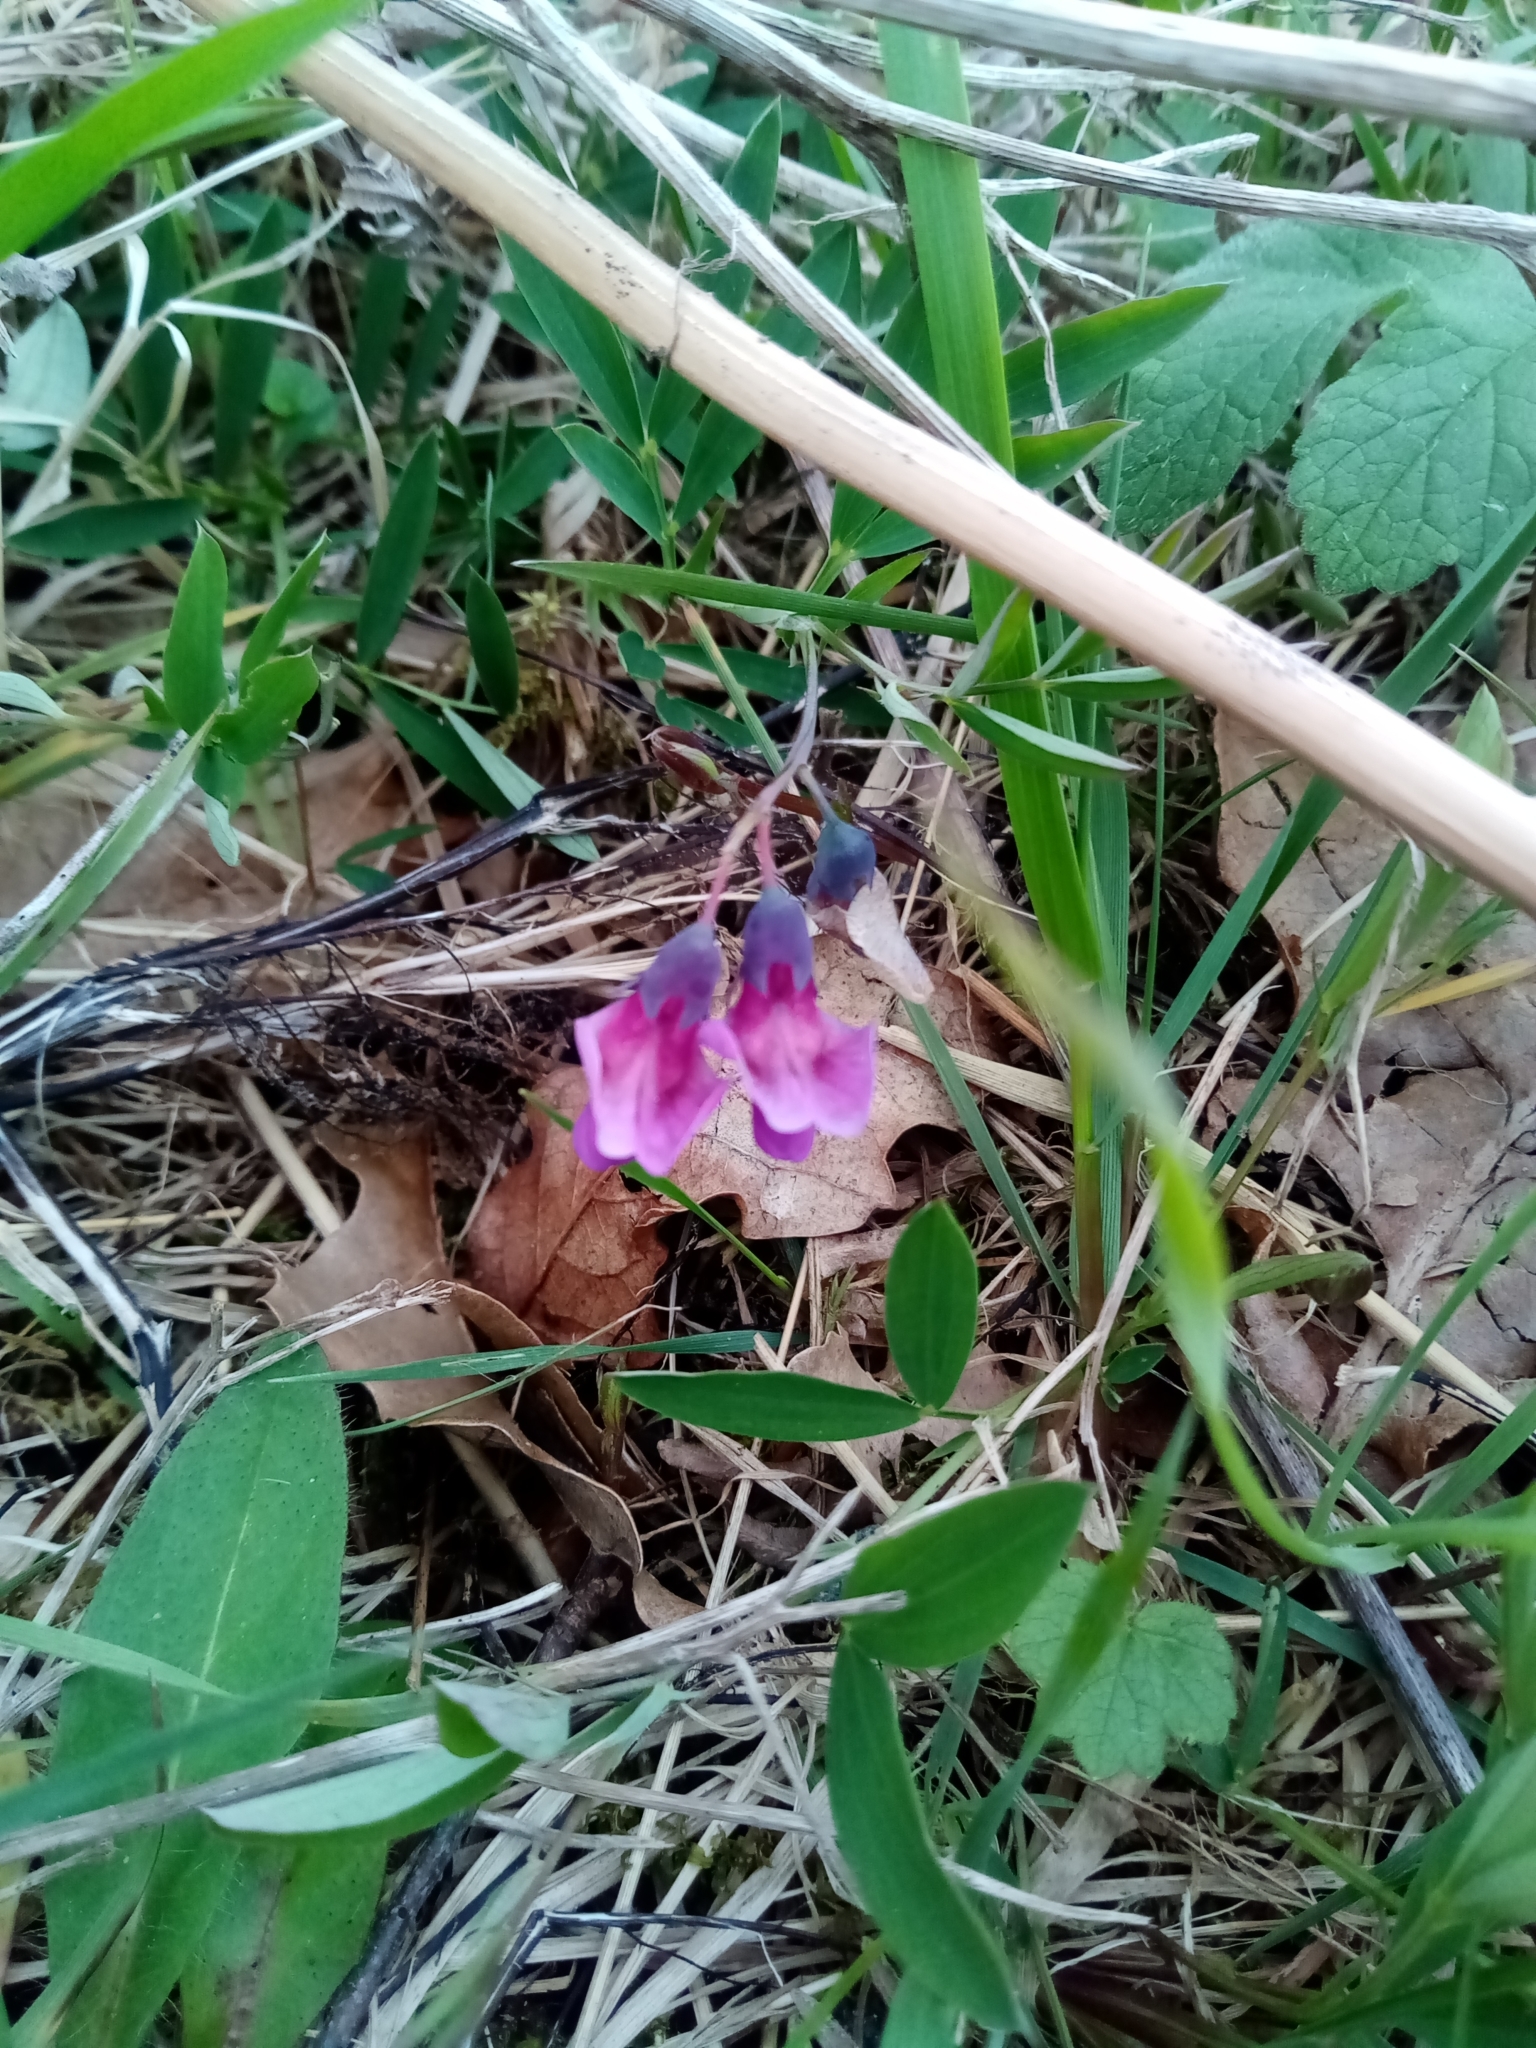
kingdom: Plantae
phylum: Tracheophyta
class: Magnoliopsida
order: Fabales
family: Fabaceae
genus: Lathyrus
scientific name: Lathyrus linifolius
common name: Bitter-vetch
